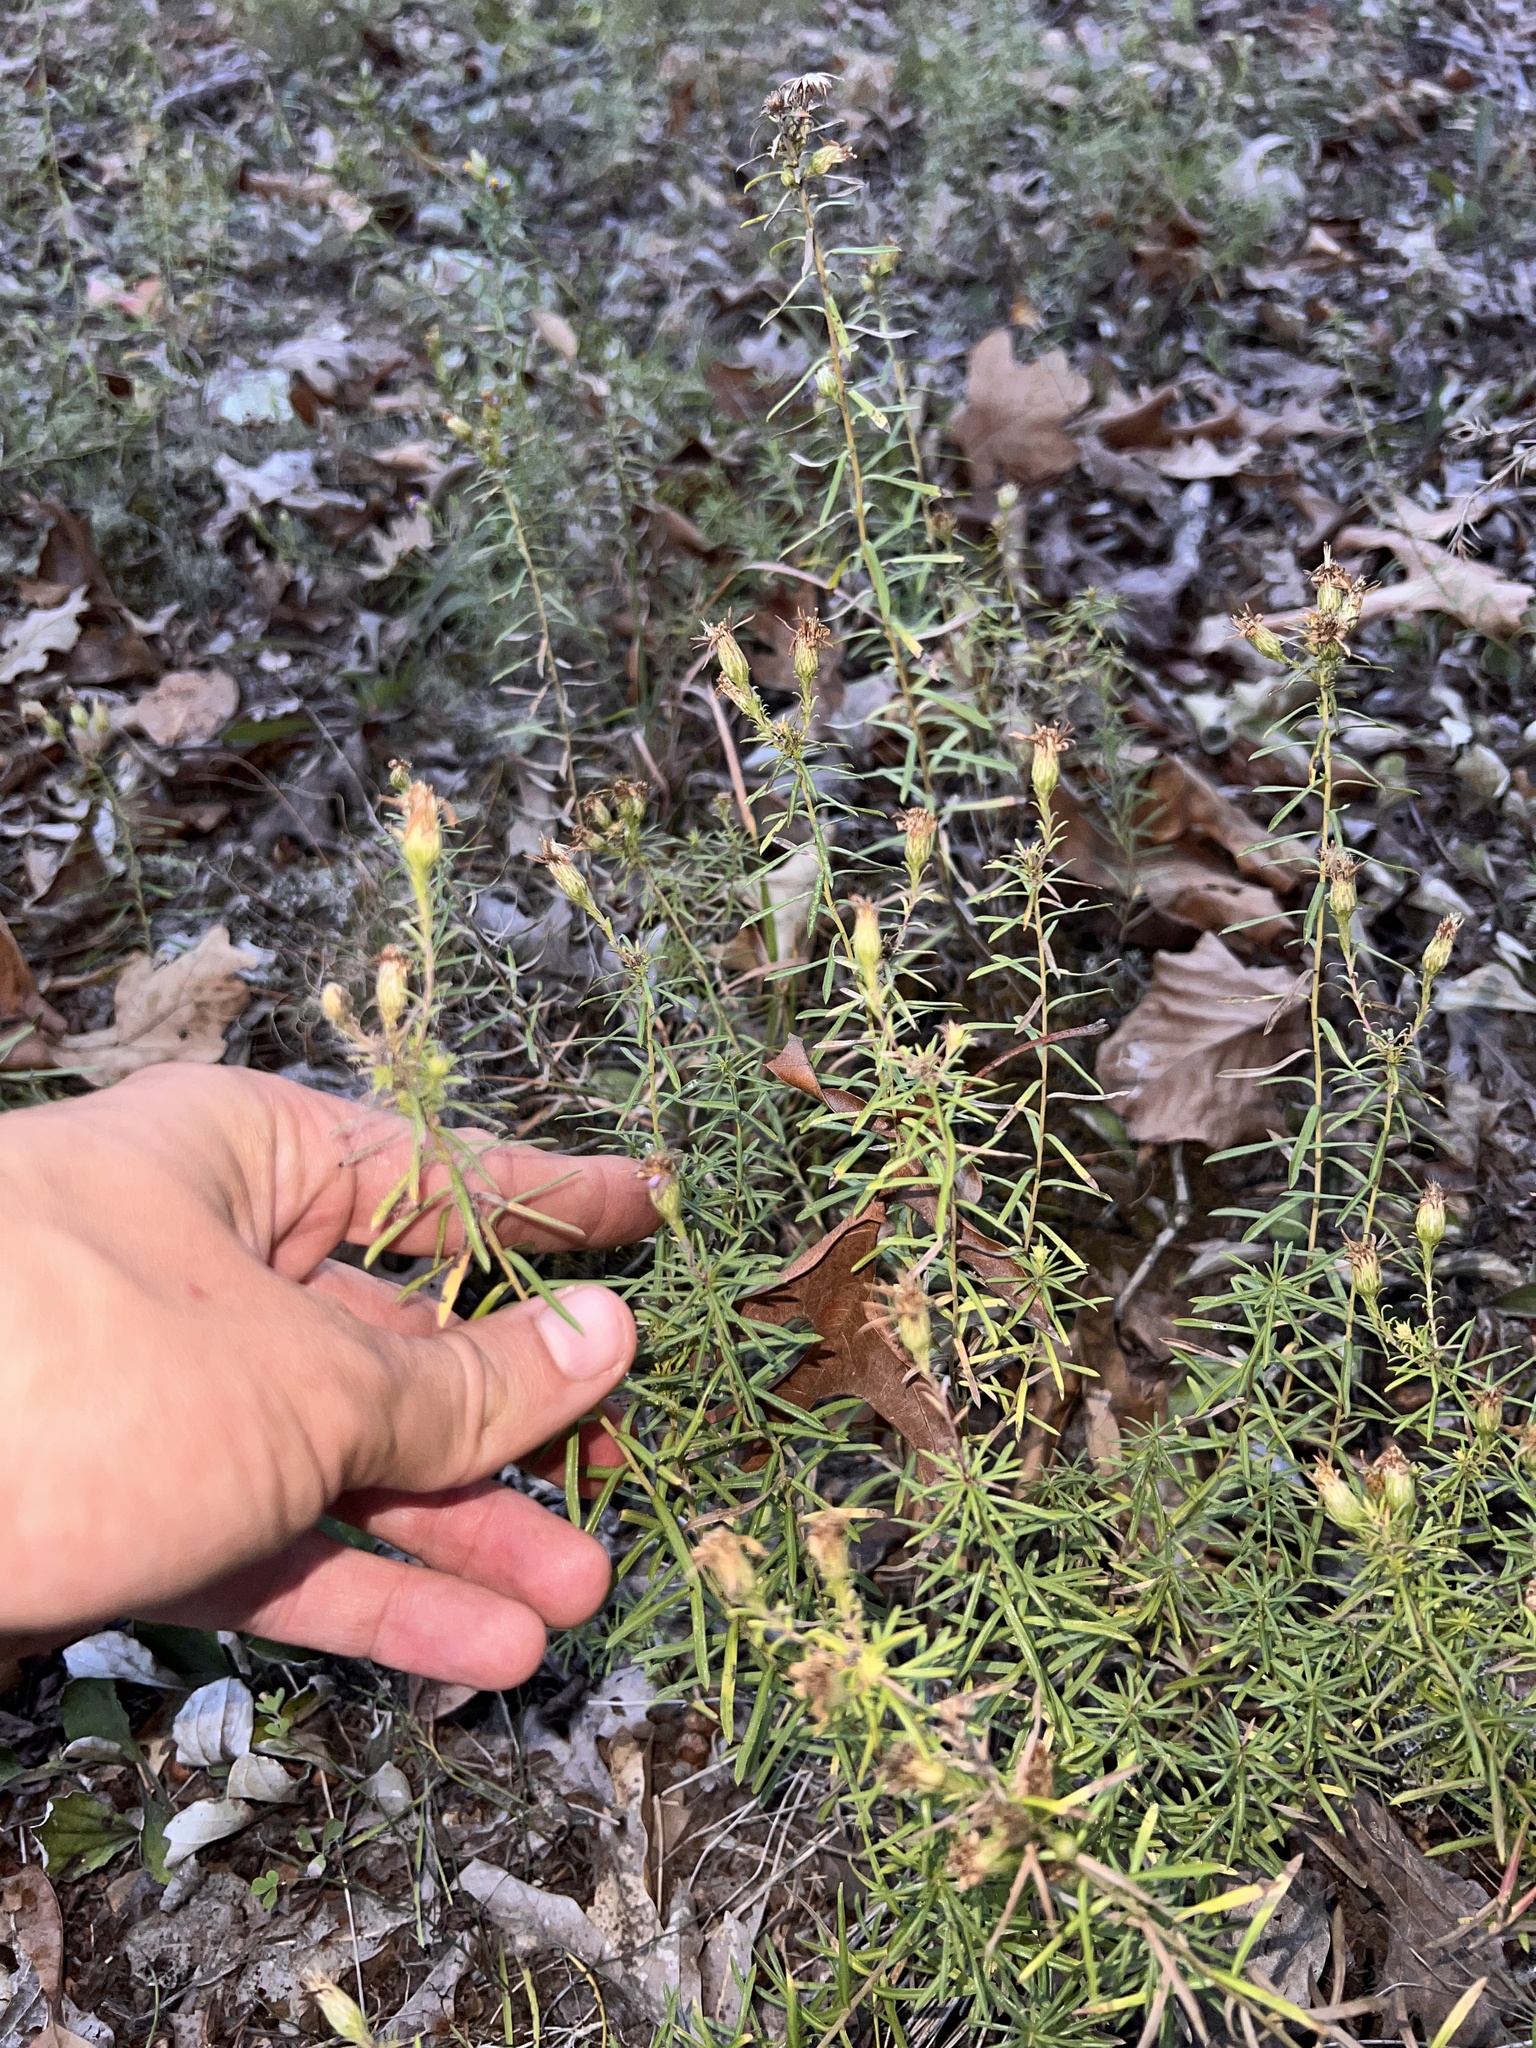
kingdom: Plantae
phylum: Tracheophyta
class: Magnoliopsida
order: Asterales
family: Asteraceae
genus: Ionactis
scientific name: Ionactis linariifolia
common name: Flax-leaf aster
